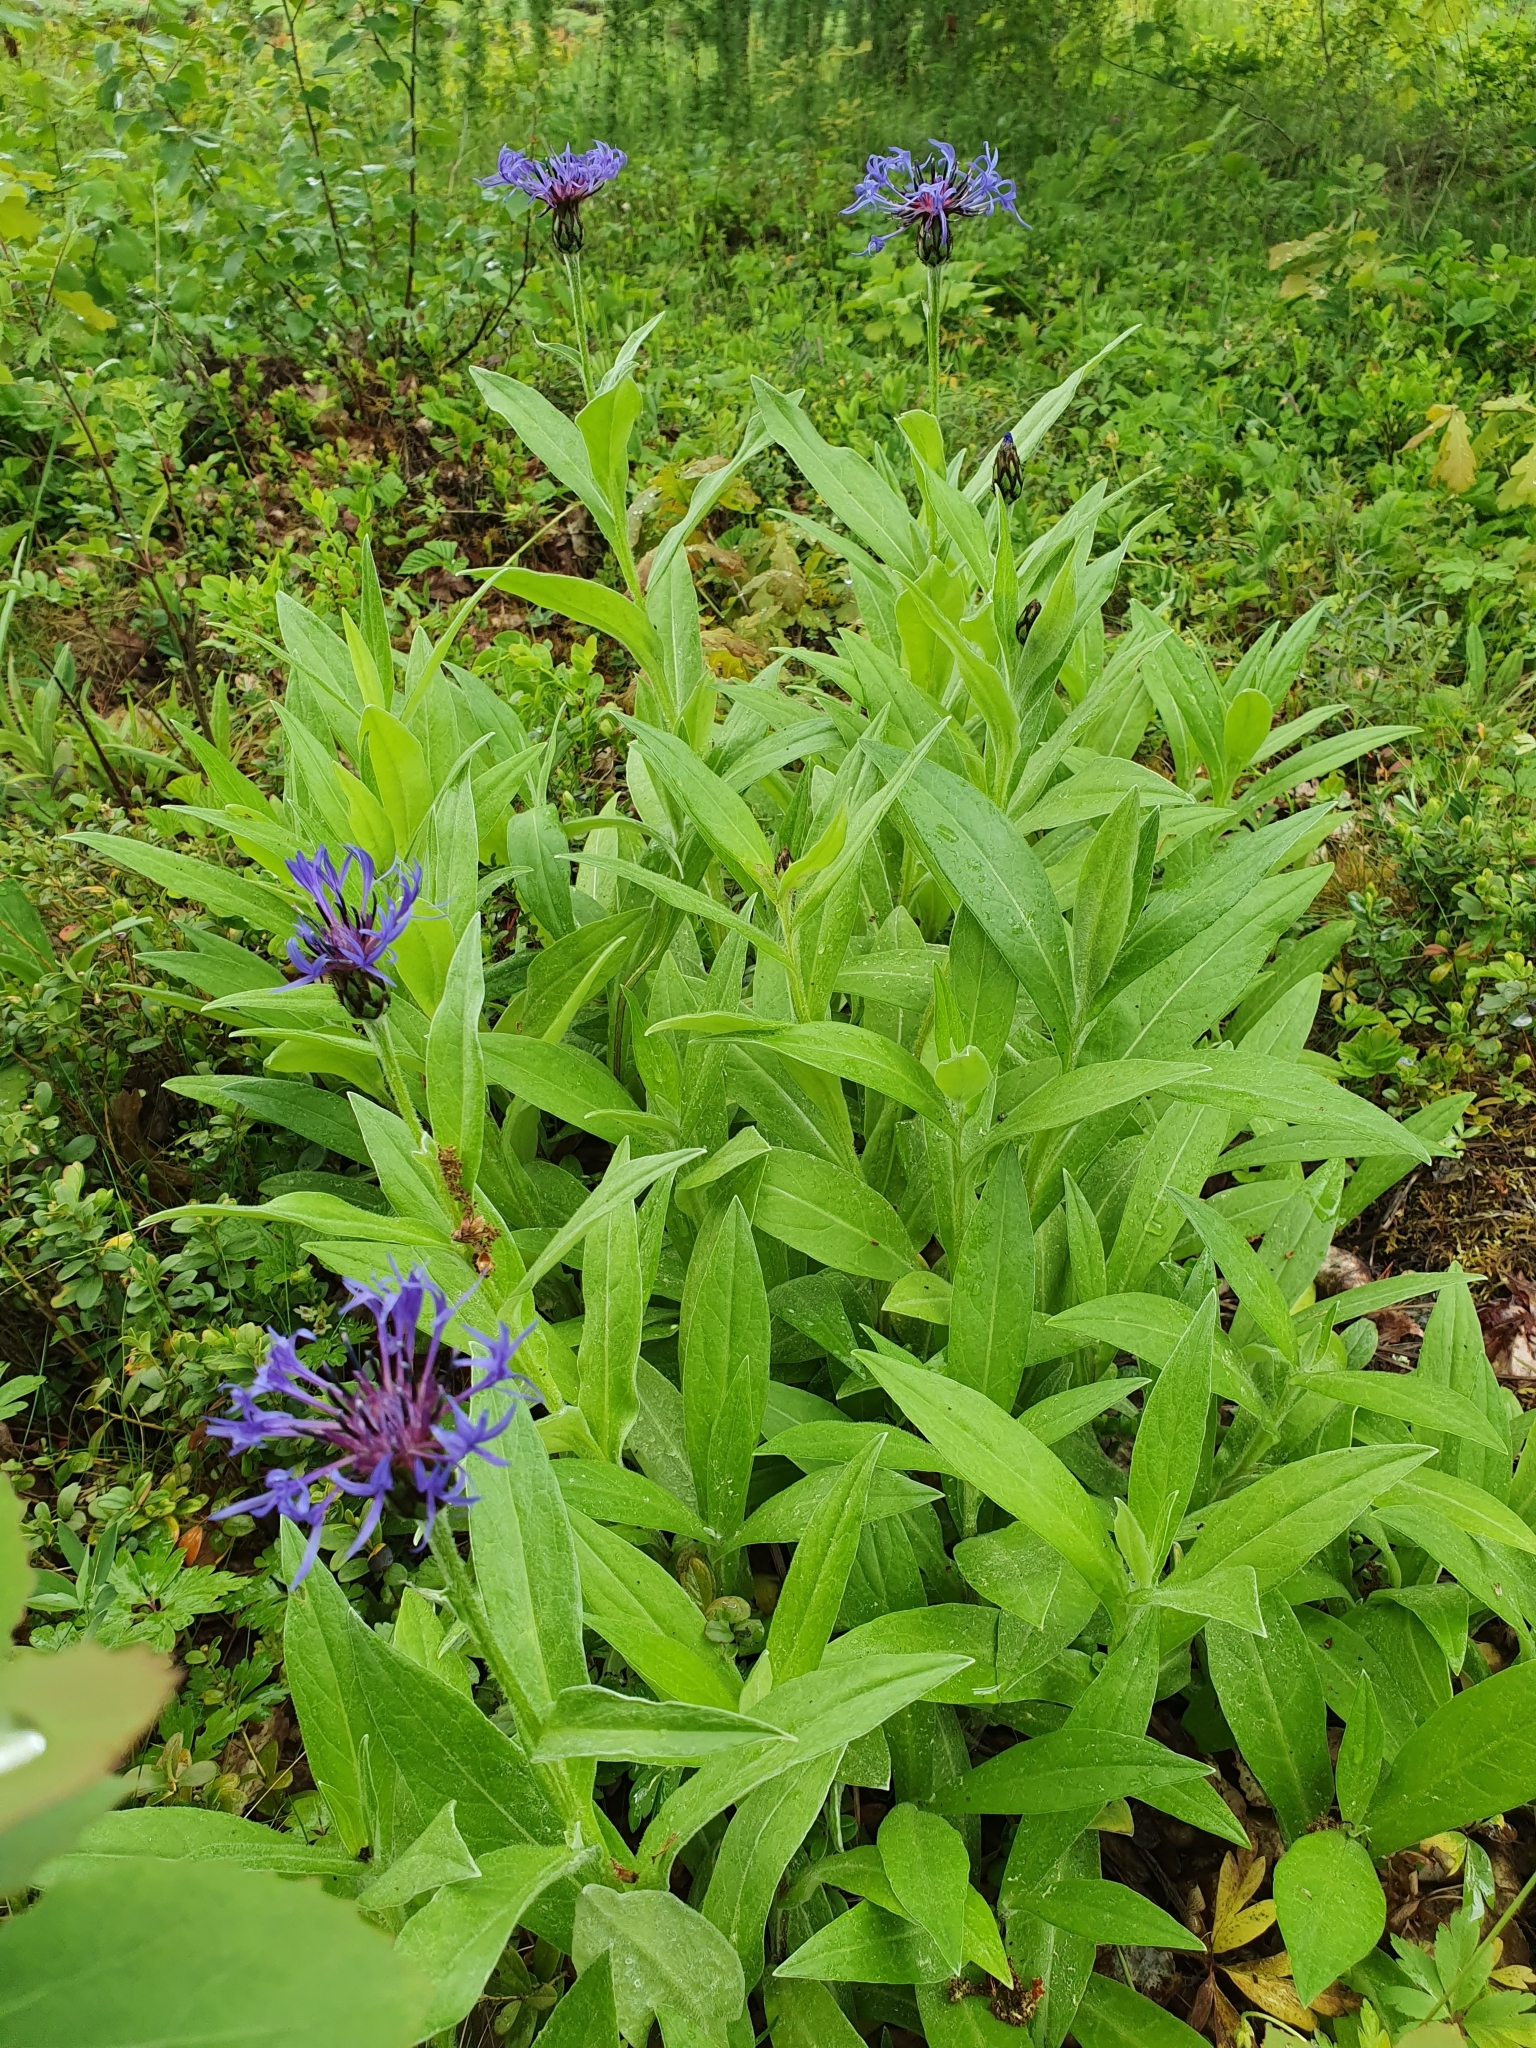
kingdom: Plantae
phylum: Tracheophyta
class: Magnoliopsida
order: Asterales
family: Asteraceae
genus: Centaurea
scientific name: Centaurea montana
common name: Perennial cornflower
